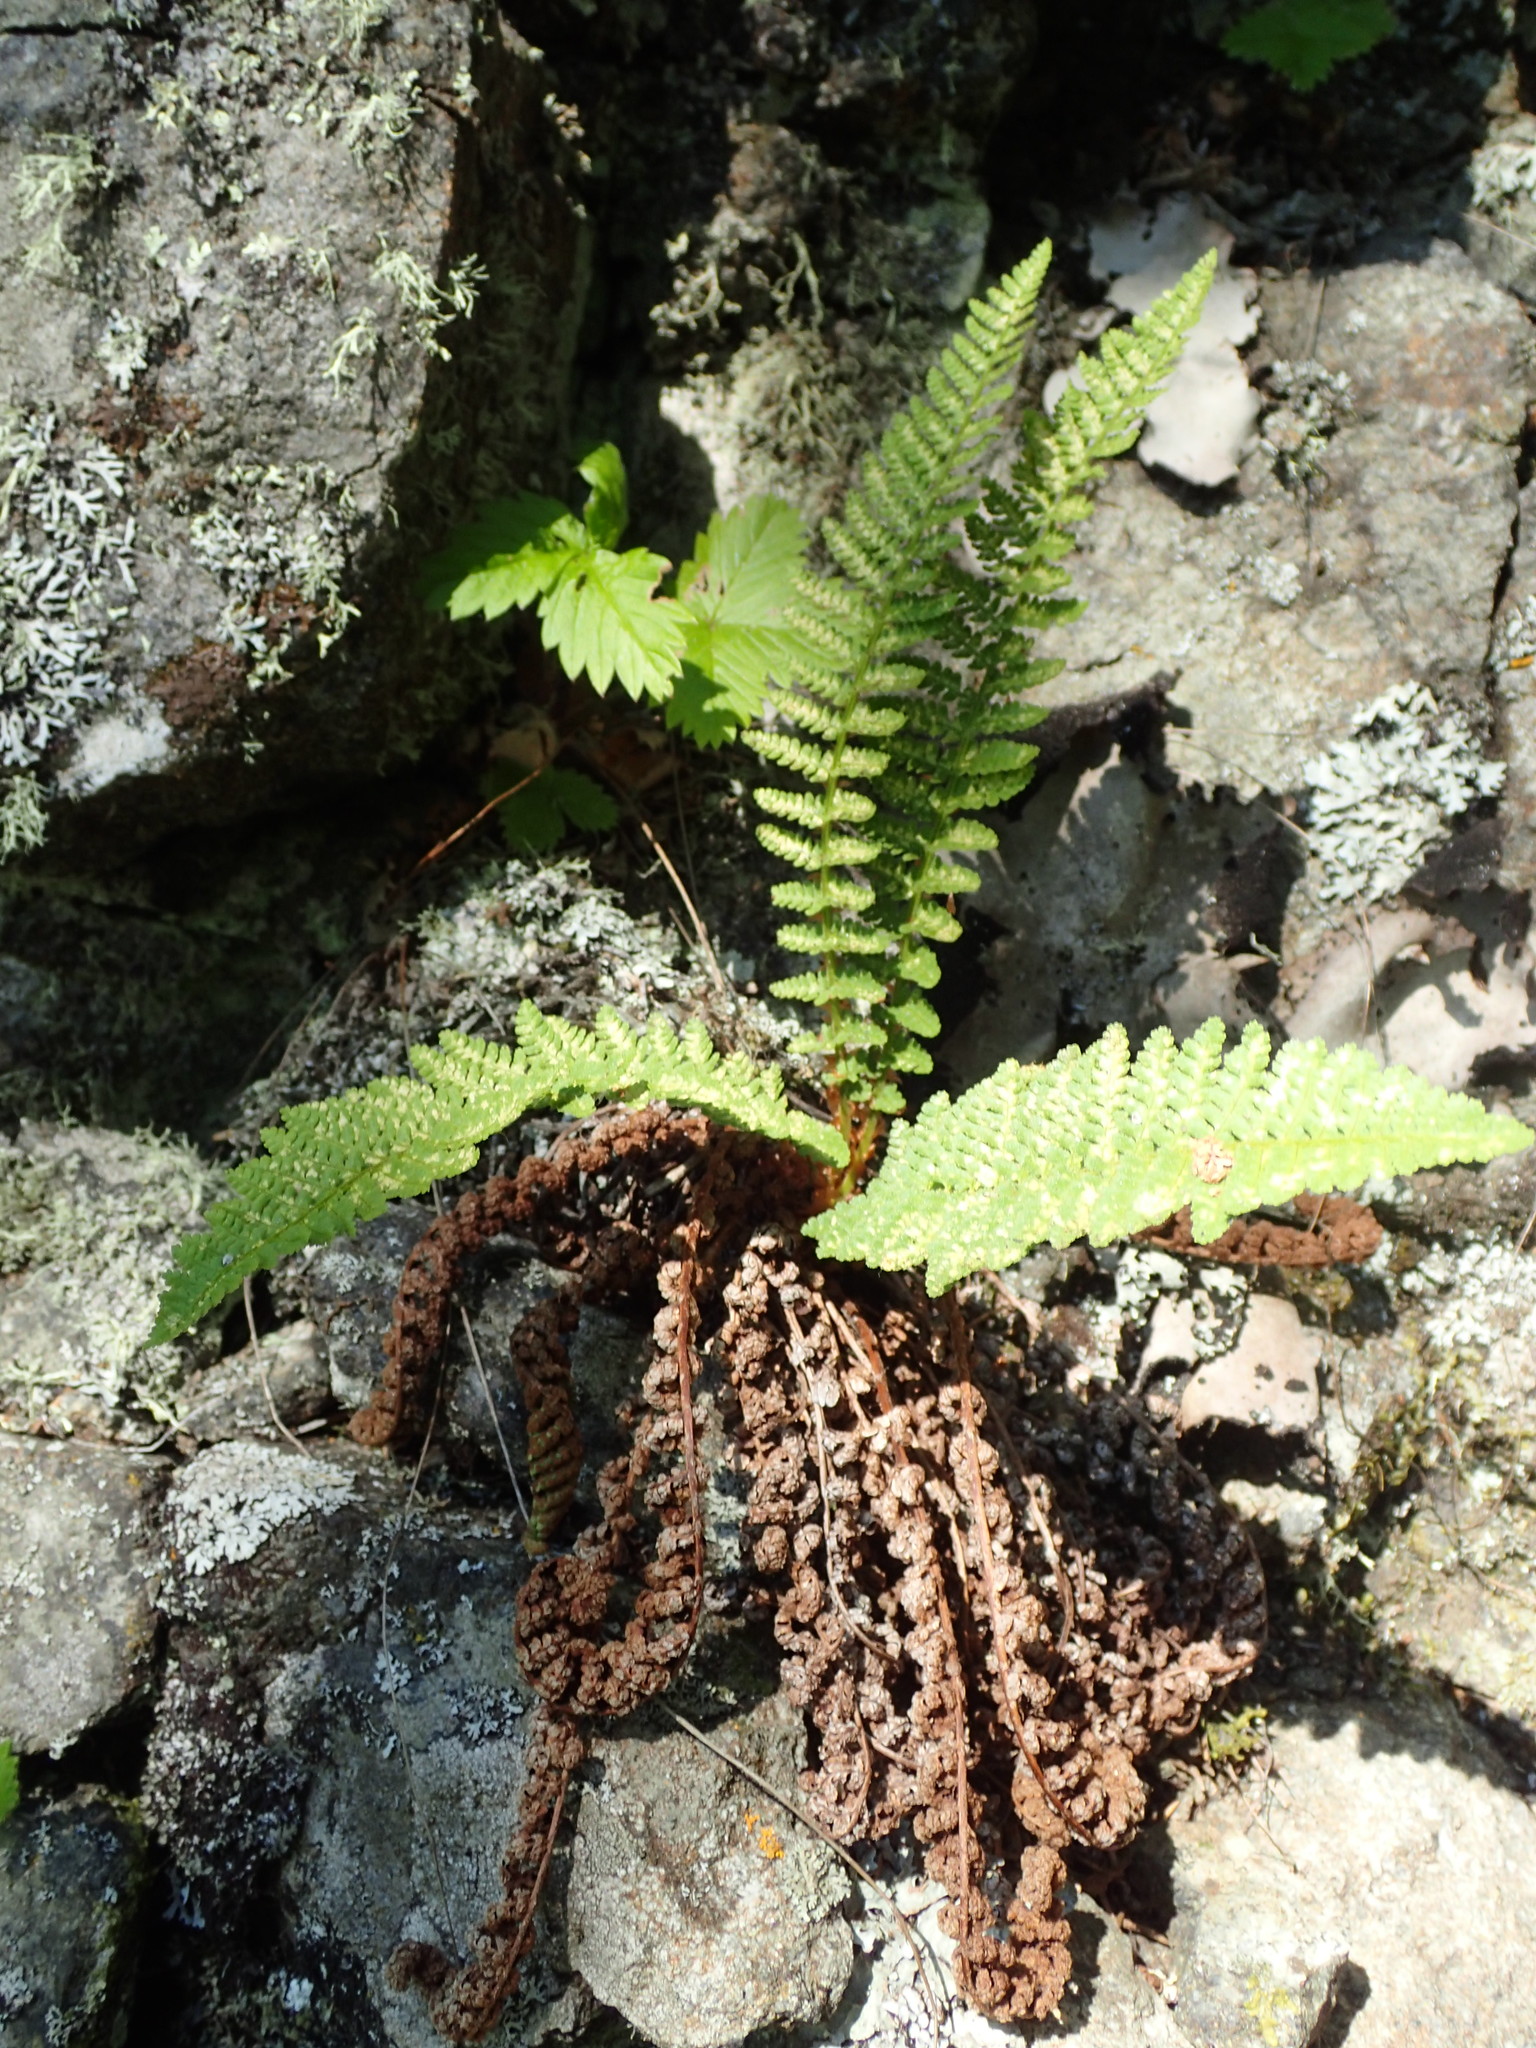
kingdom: Plantae
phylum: Tracheophyta
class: Polypodiopsida
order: Polypodiales
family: Dryopteridaceae
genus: Dryopteris
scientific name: Dryopteris fragrans
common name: Fragrant wood fern
